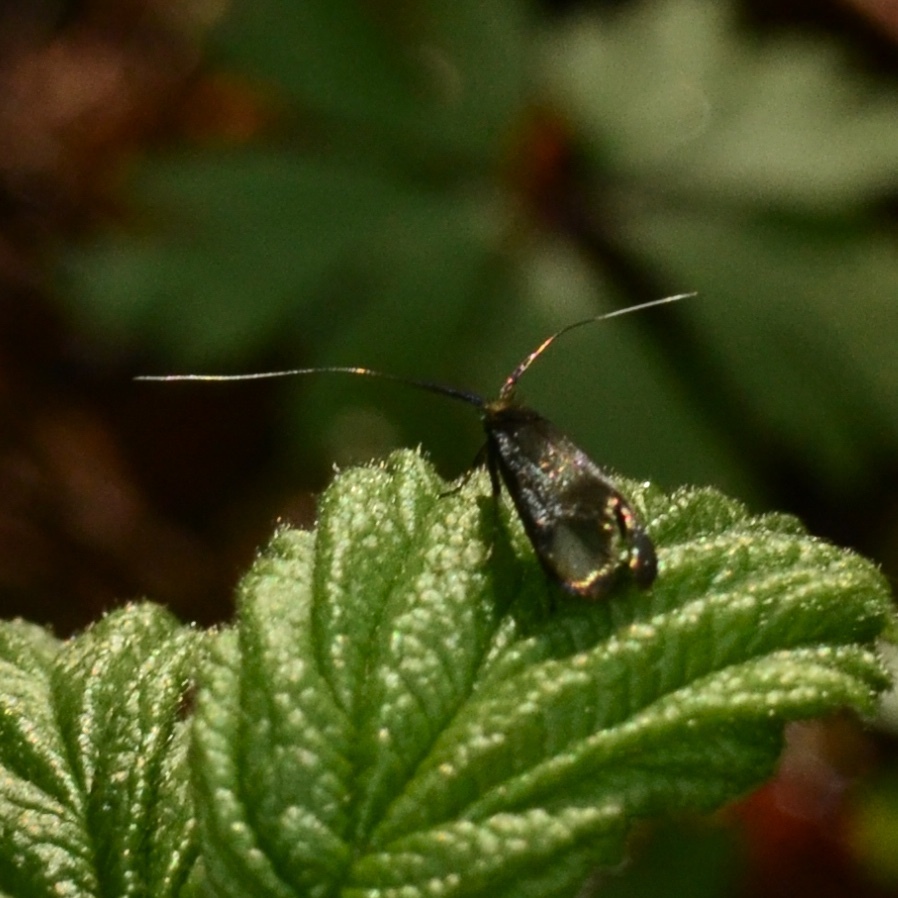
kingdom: Animalia
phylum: Arthropoda
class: Insecta
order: Lepidoptera
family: Adelidae
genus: Adela
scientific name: Adela viridella
